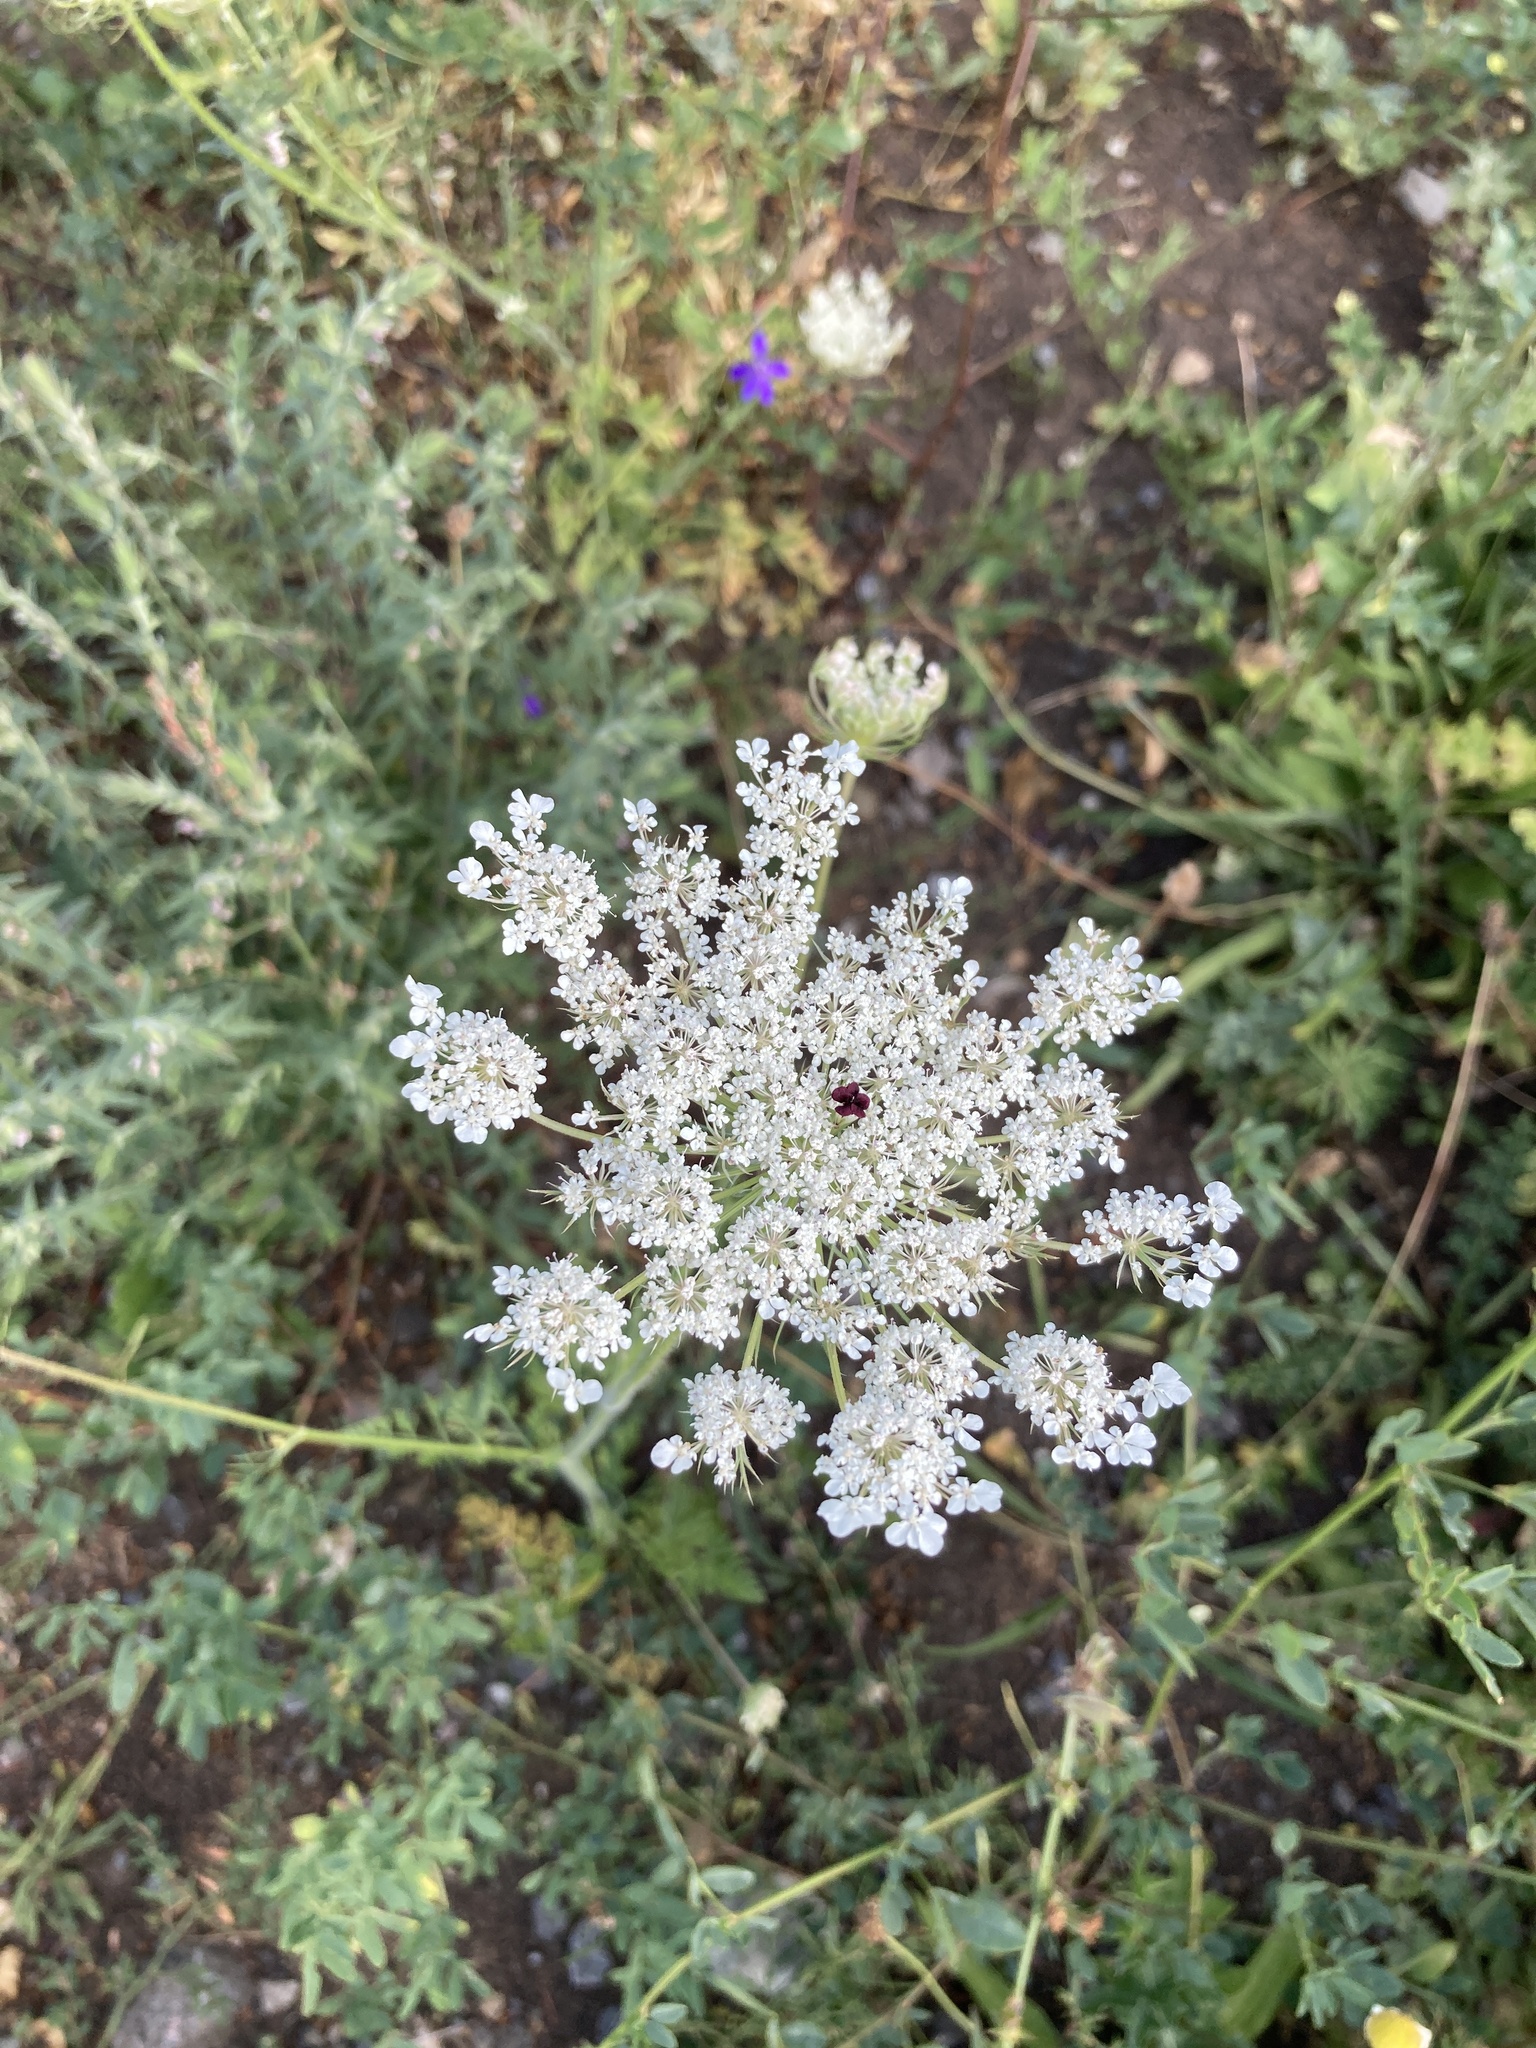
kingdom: Plantae
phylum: Tracheophyta
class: Magnoliopsida
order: Apiales
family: Apiaceae
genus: Daucus
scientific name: Daucus carota
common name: Wild carrot
